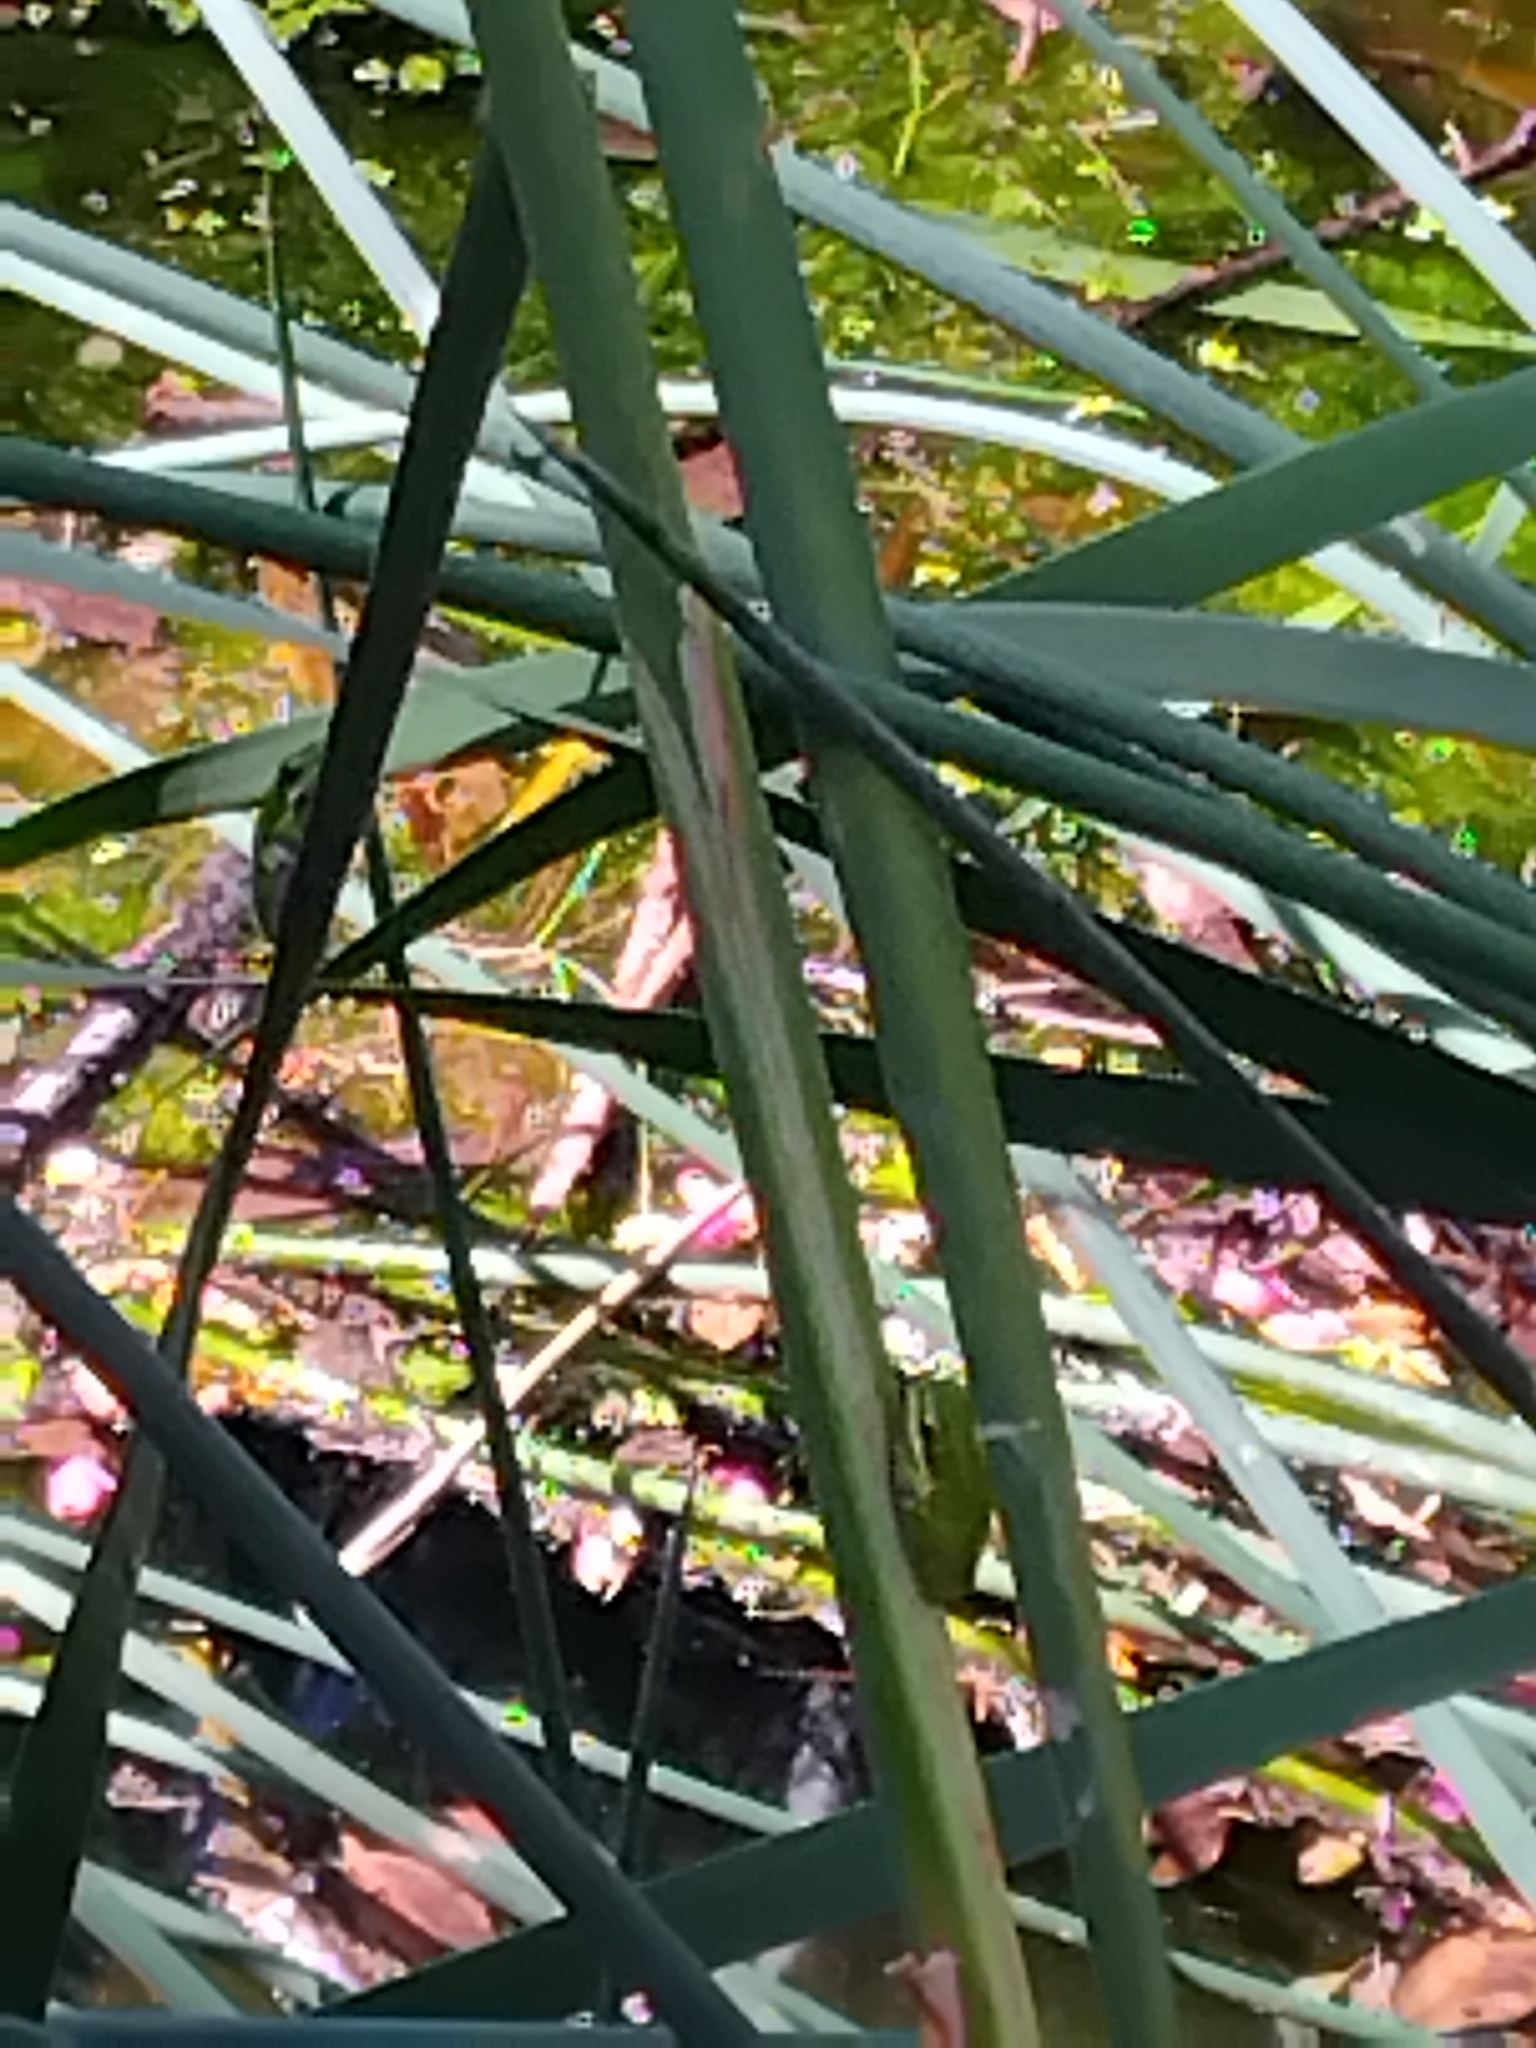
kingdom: Animalia
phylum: Chordata
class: Amphibia
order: Anura
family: Pelodryadidae
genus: Litoria
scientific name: Litoria fallax
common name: Eastern dwarf treefrog
